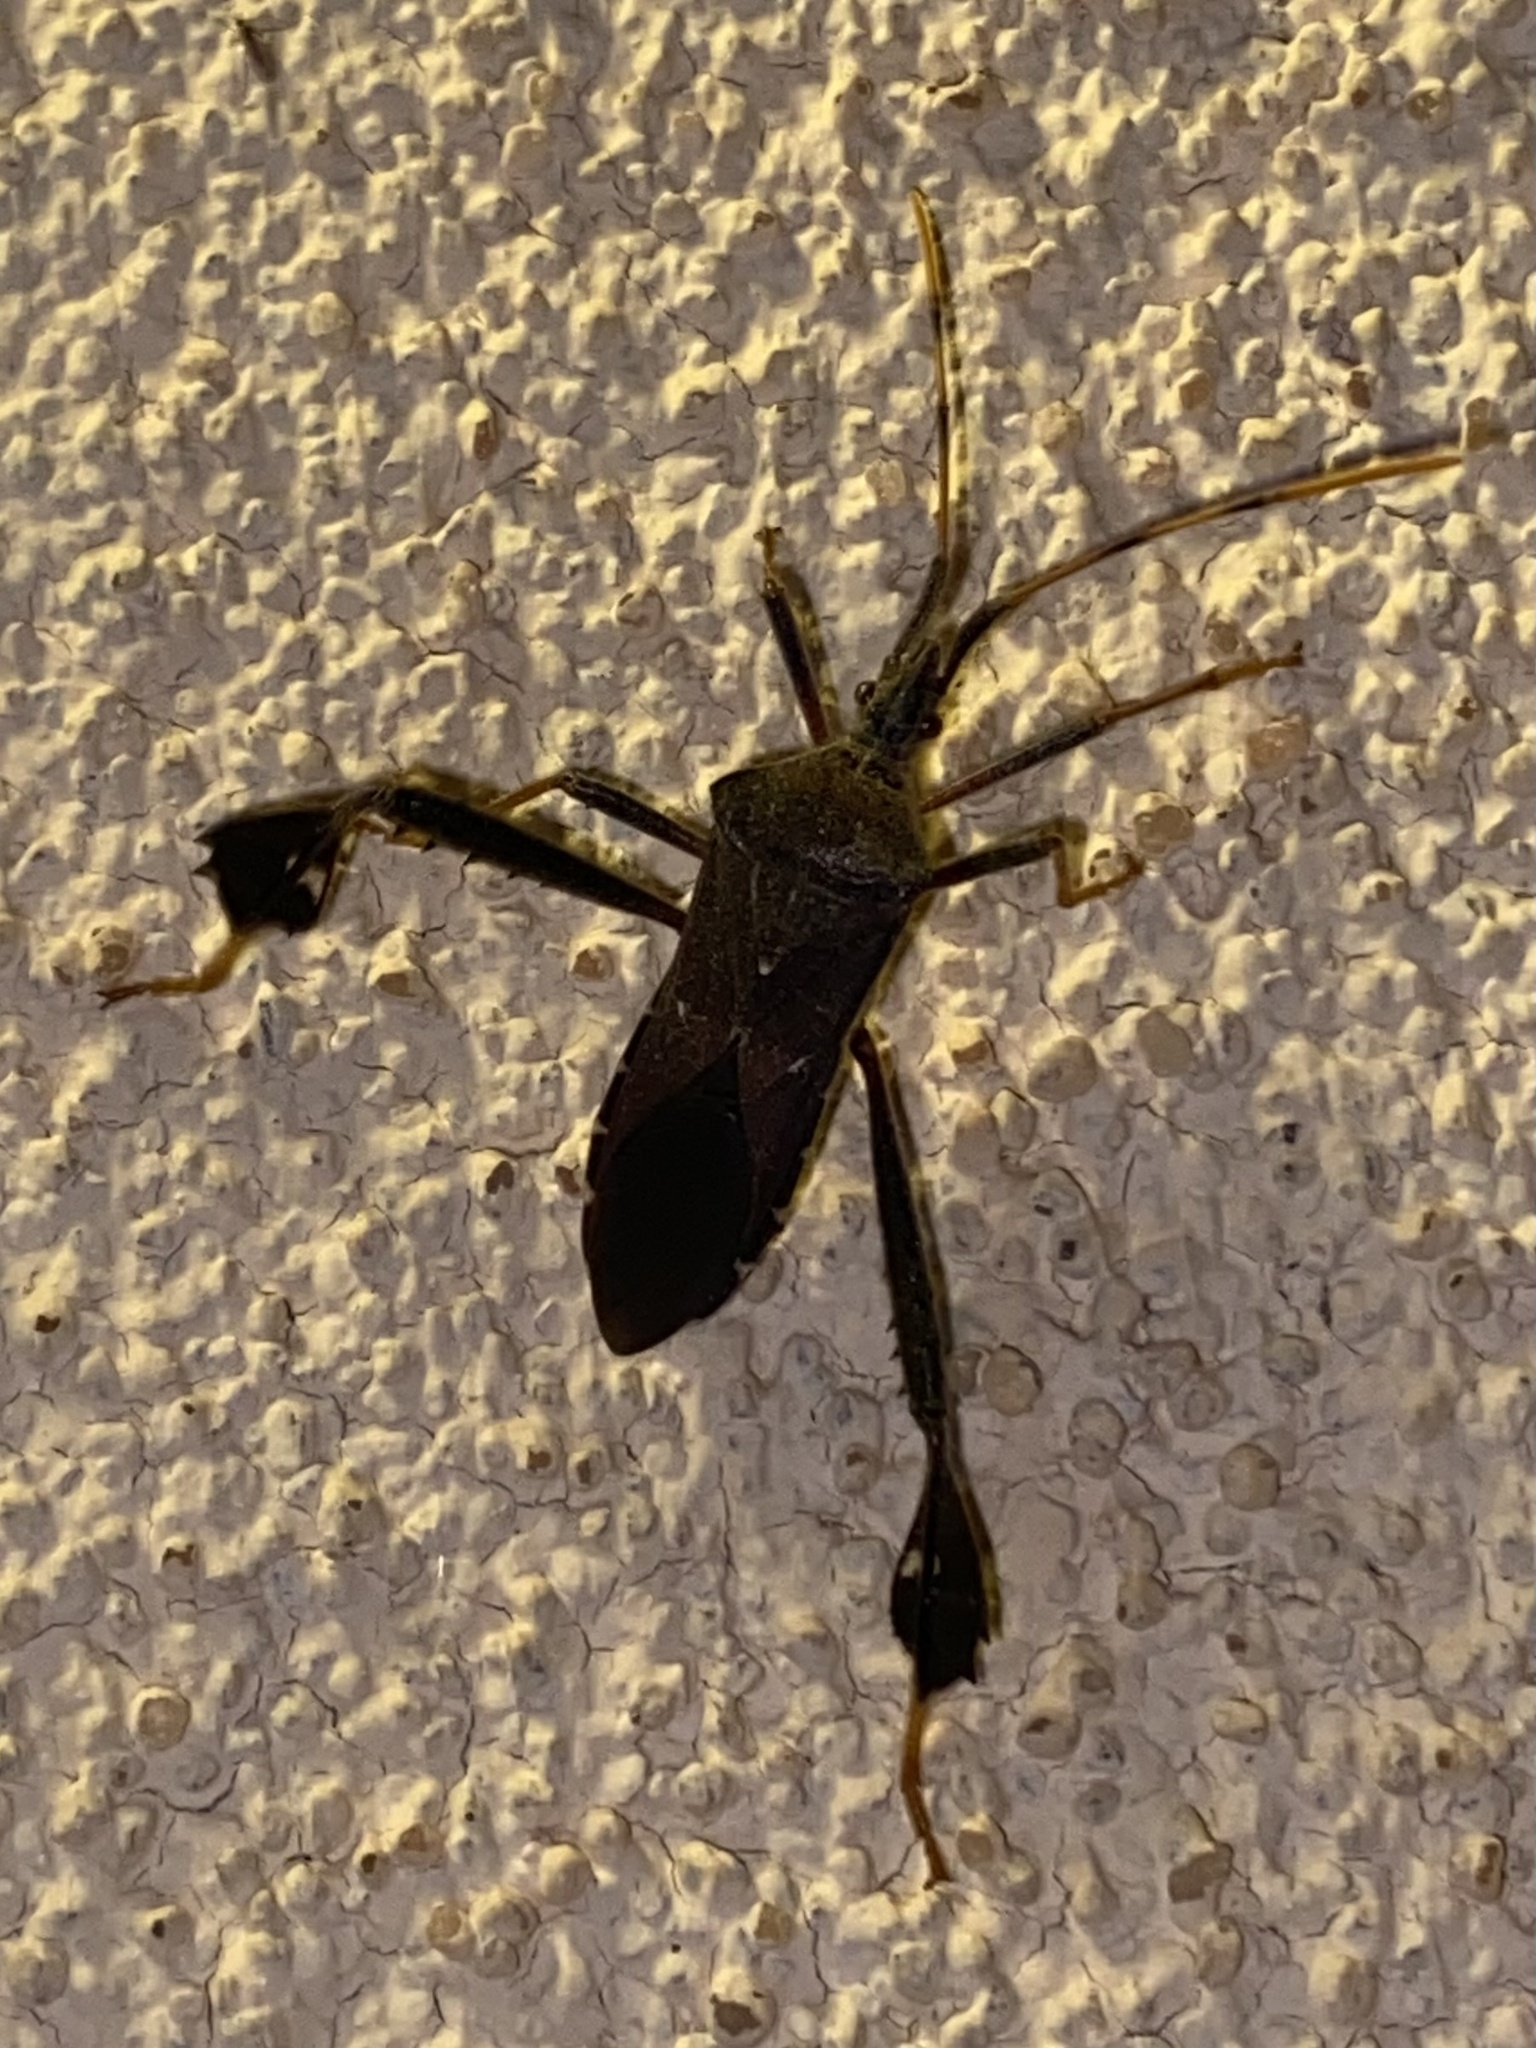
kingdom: Animalia
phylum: Arthropoda
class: Insecta
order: Hemiptera
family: Coreidae
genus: Leptoglossus
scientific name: Leptoglossus oppositus
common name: Northern leaf-footed bug
